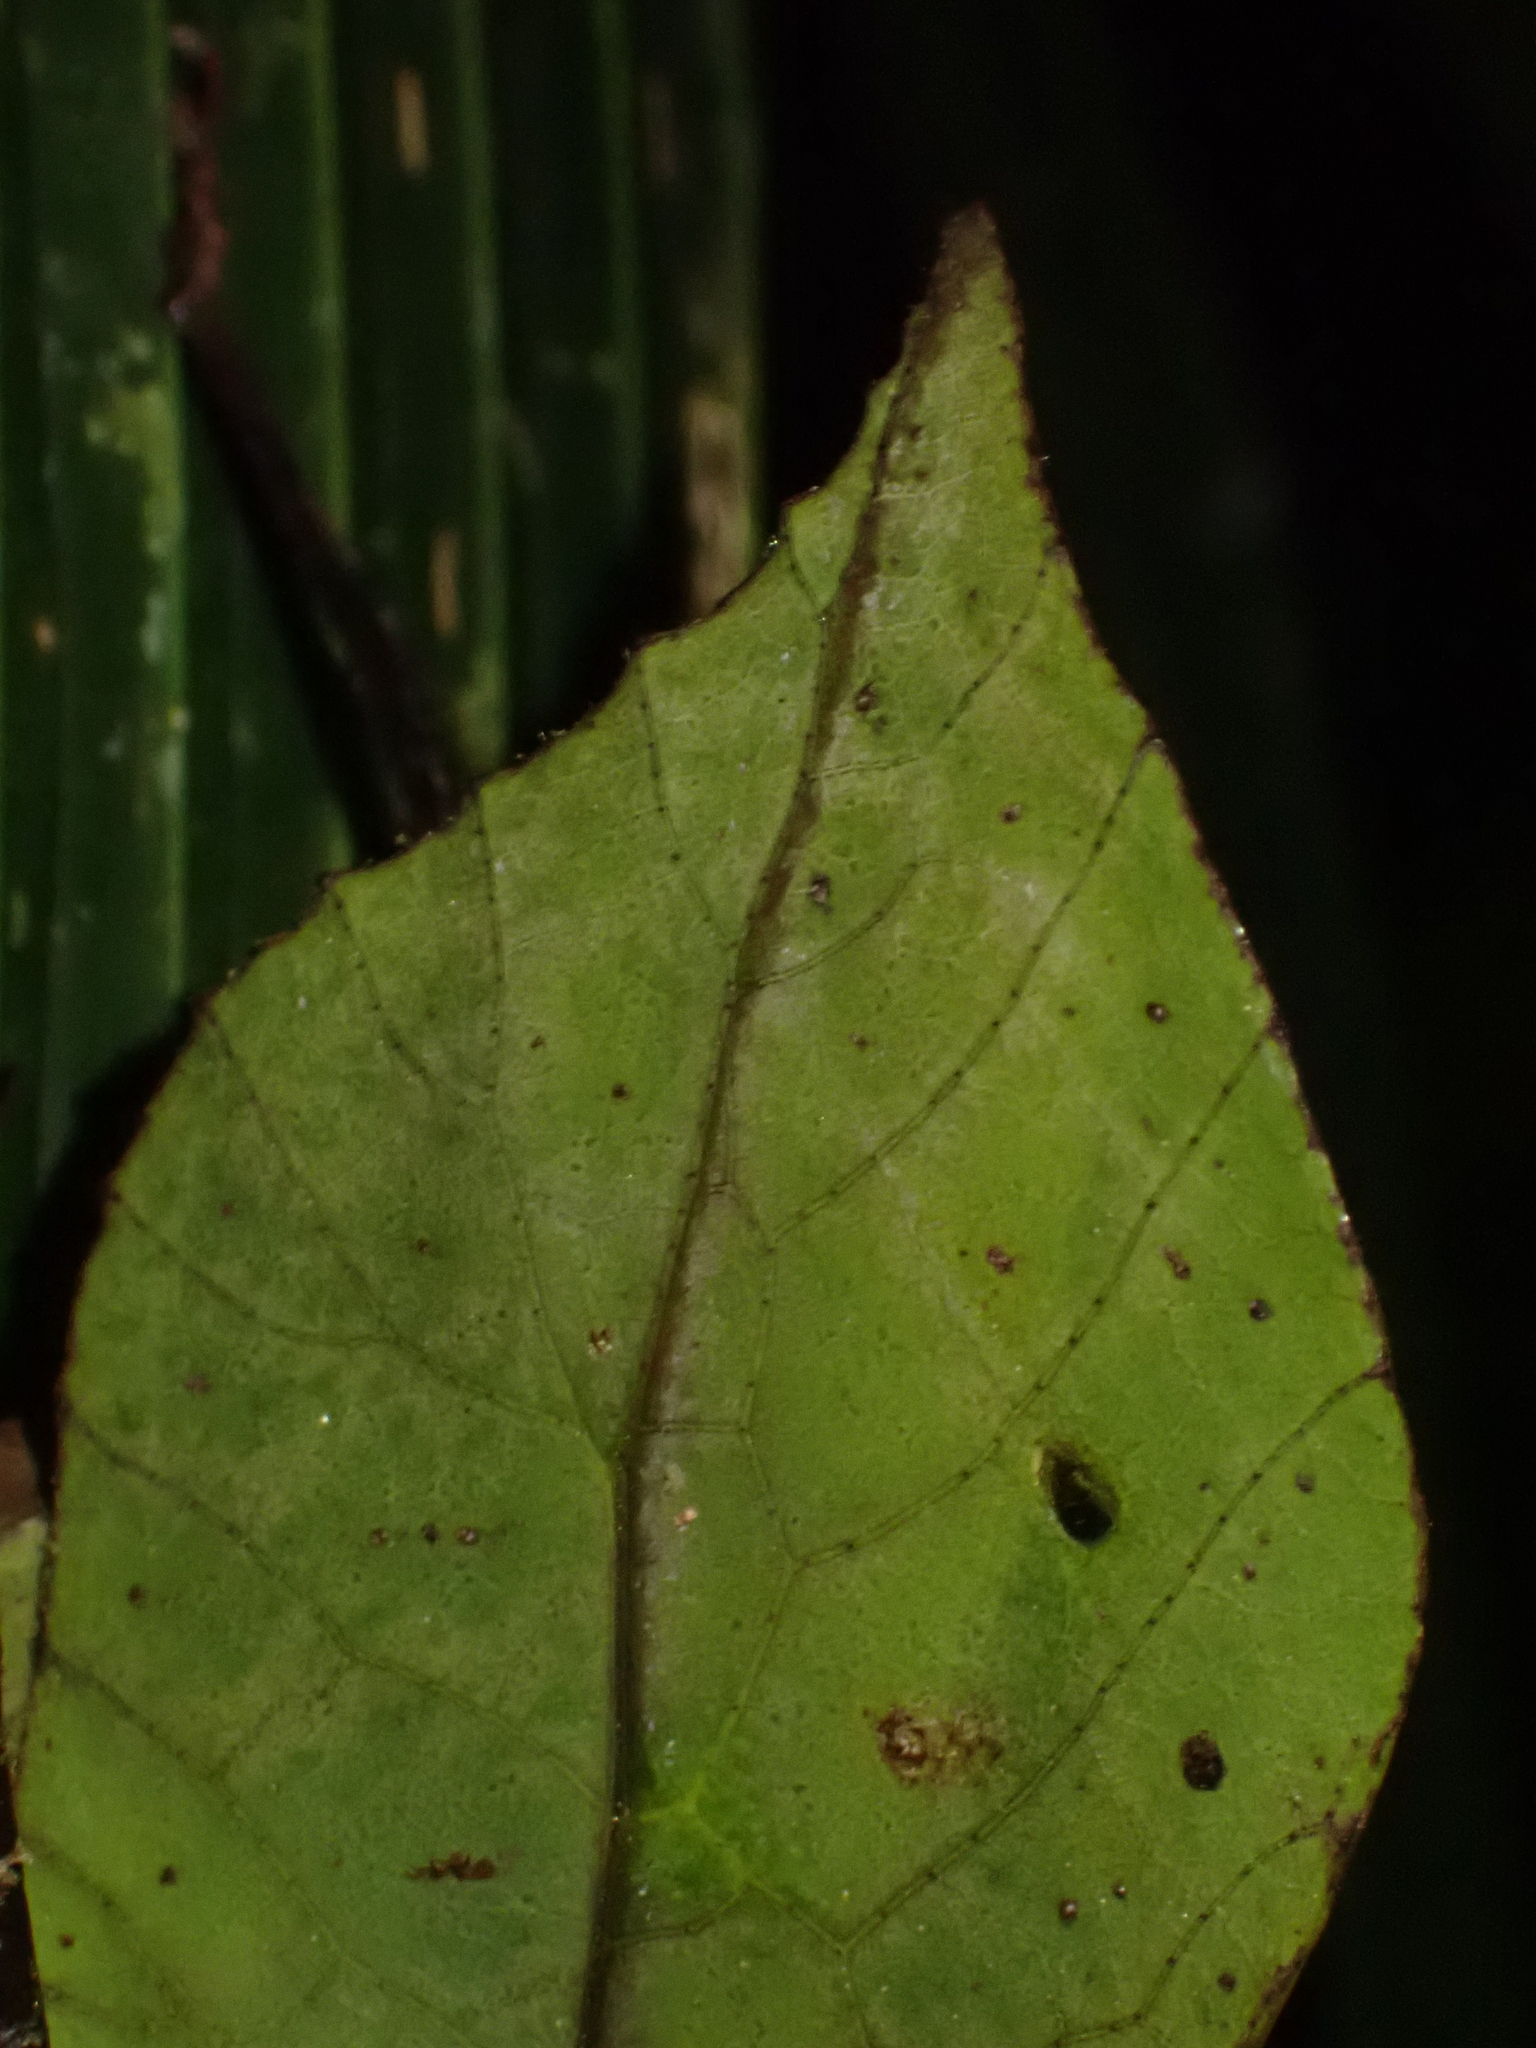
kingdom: Animalia
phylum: Arthropoda
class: Insecta
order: Orthoptera
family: Tettigoniidae
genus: Typophyllum
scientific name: Typophyllum spurioculis
